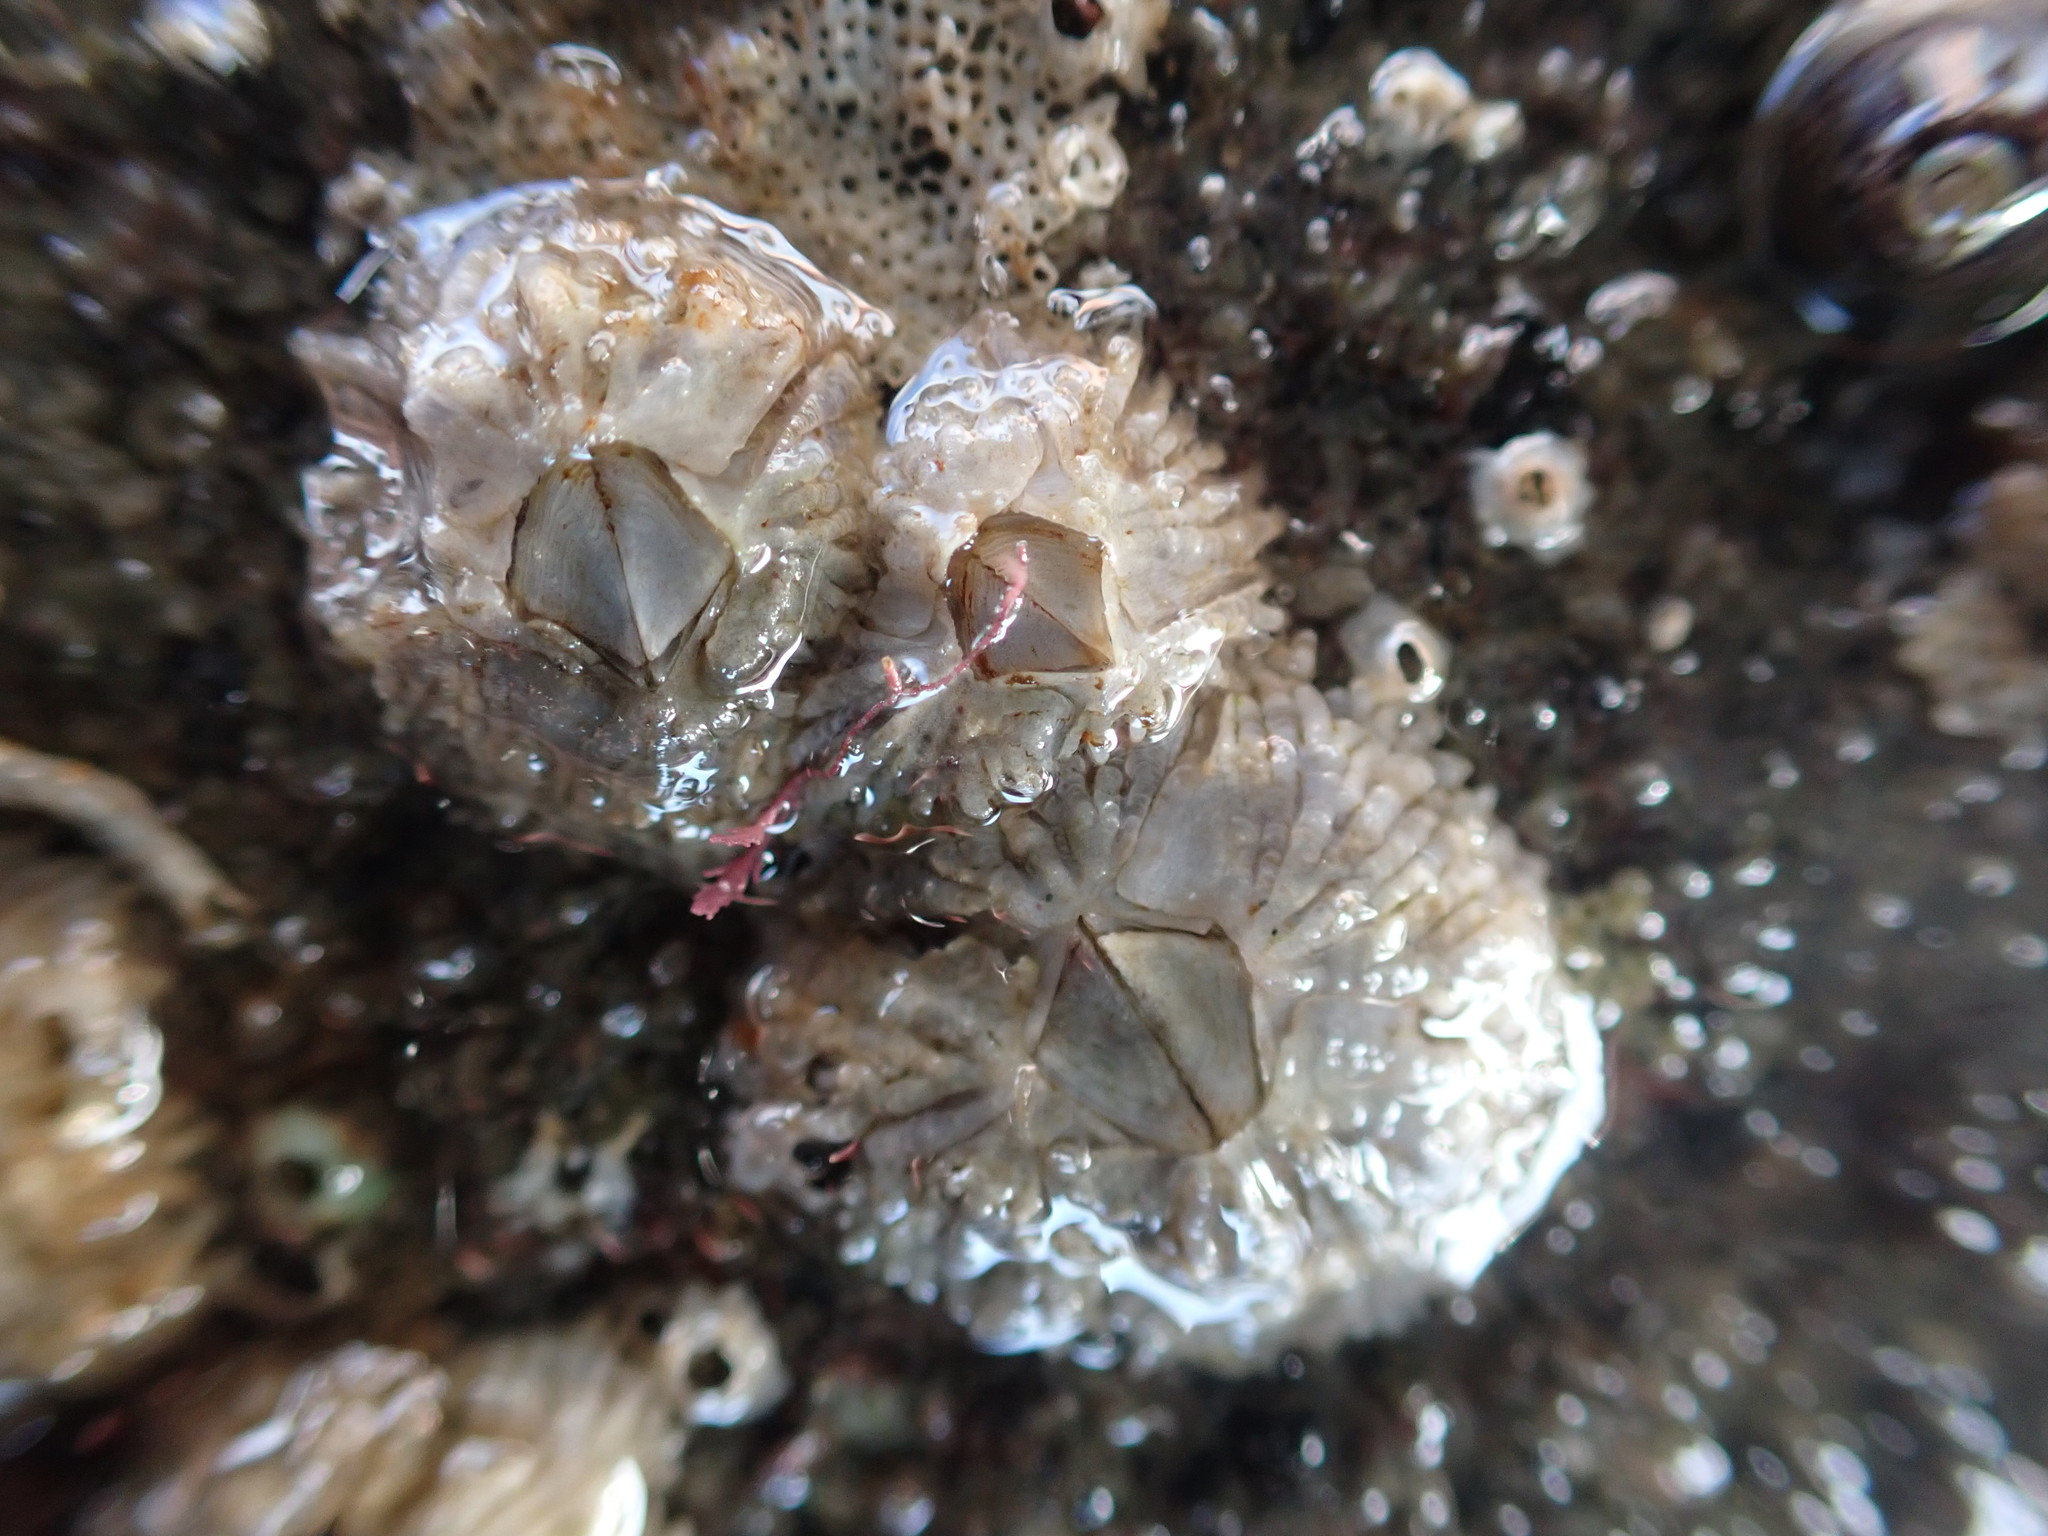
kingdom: Animalia
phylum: Arthropoda
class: Maxillopoda
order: Sessilia
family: Tetraclitidae
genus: Tetraclitella
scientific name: Tetraclitella depressa
